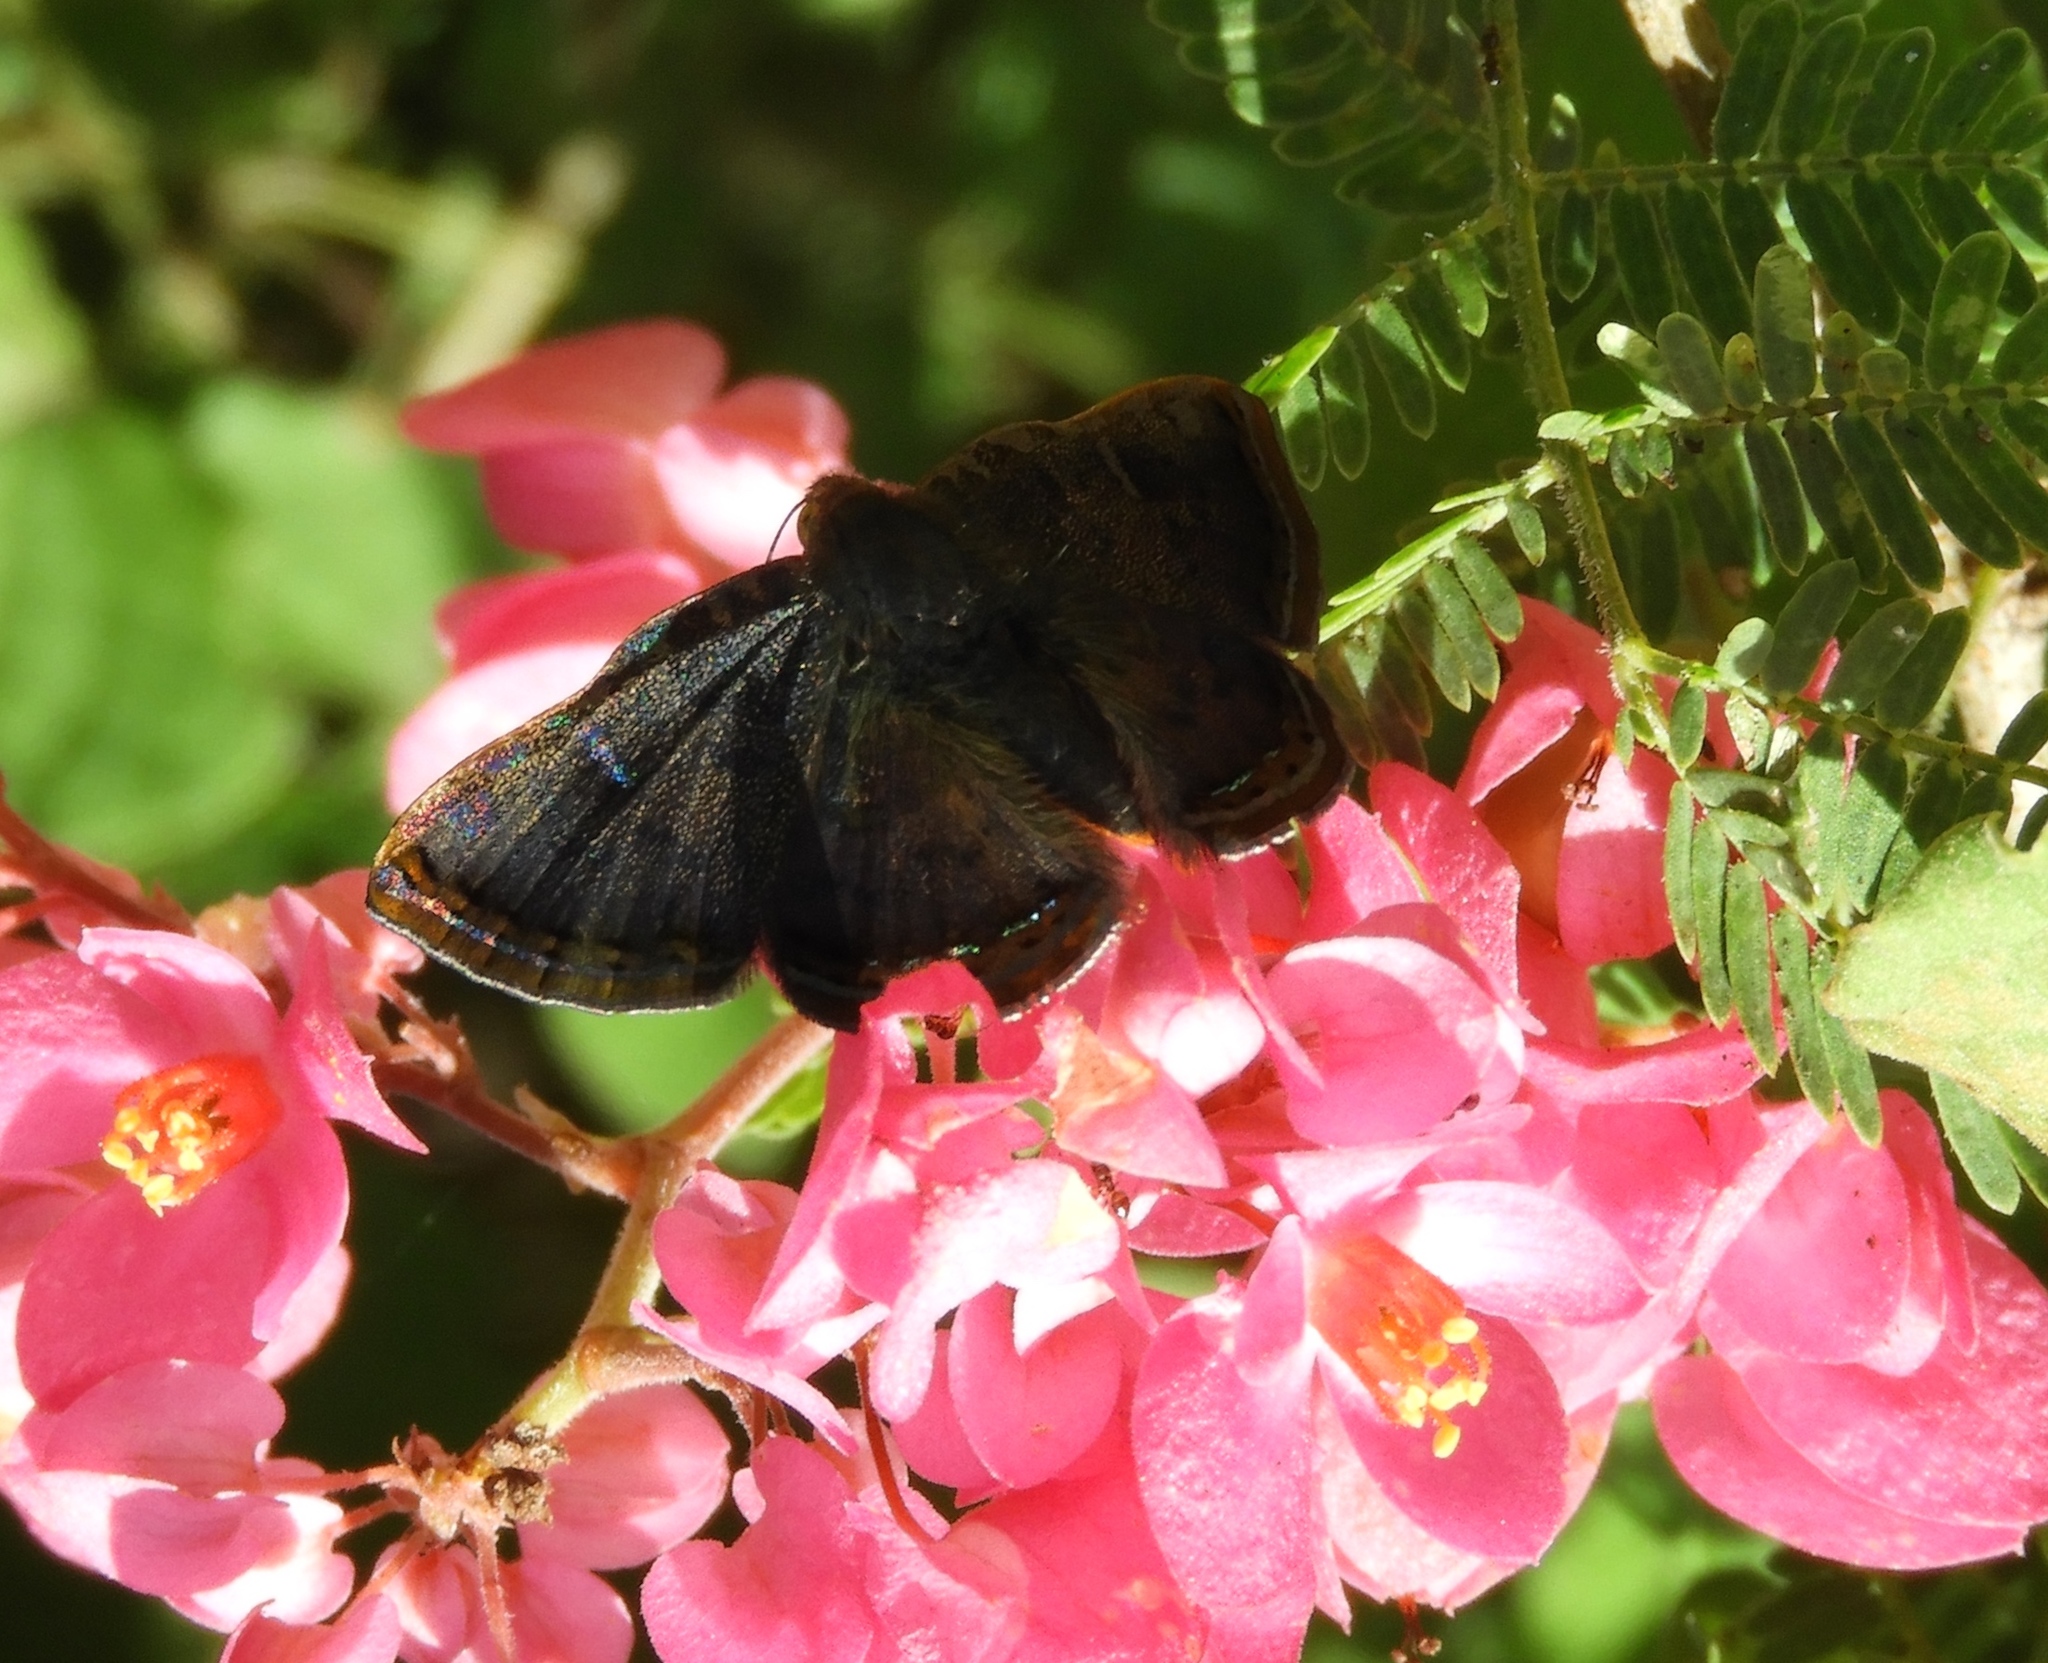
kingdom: Animalia
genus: Caria
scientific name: Caria ino
